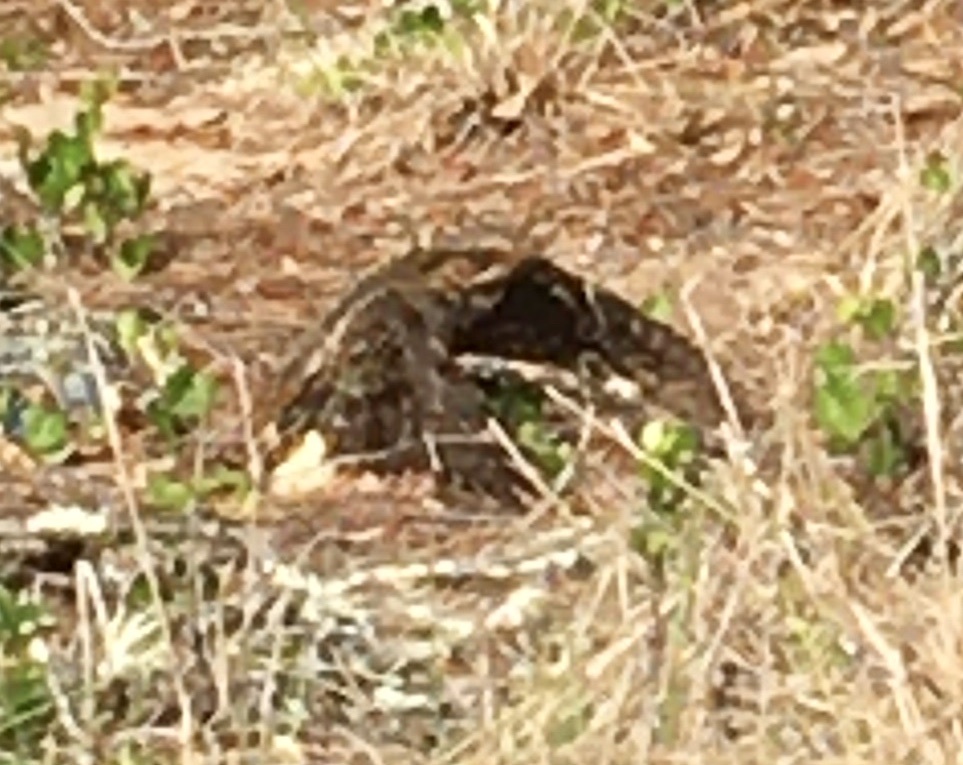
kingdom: Animalia
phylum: Chordata
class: Aves
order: Caprimulgiformes
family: Caprimulgidae
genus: Antrostomus
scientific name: Antrostomus carolinensis
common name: Chuck-will's-widow
